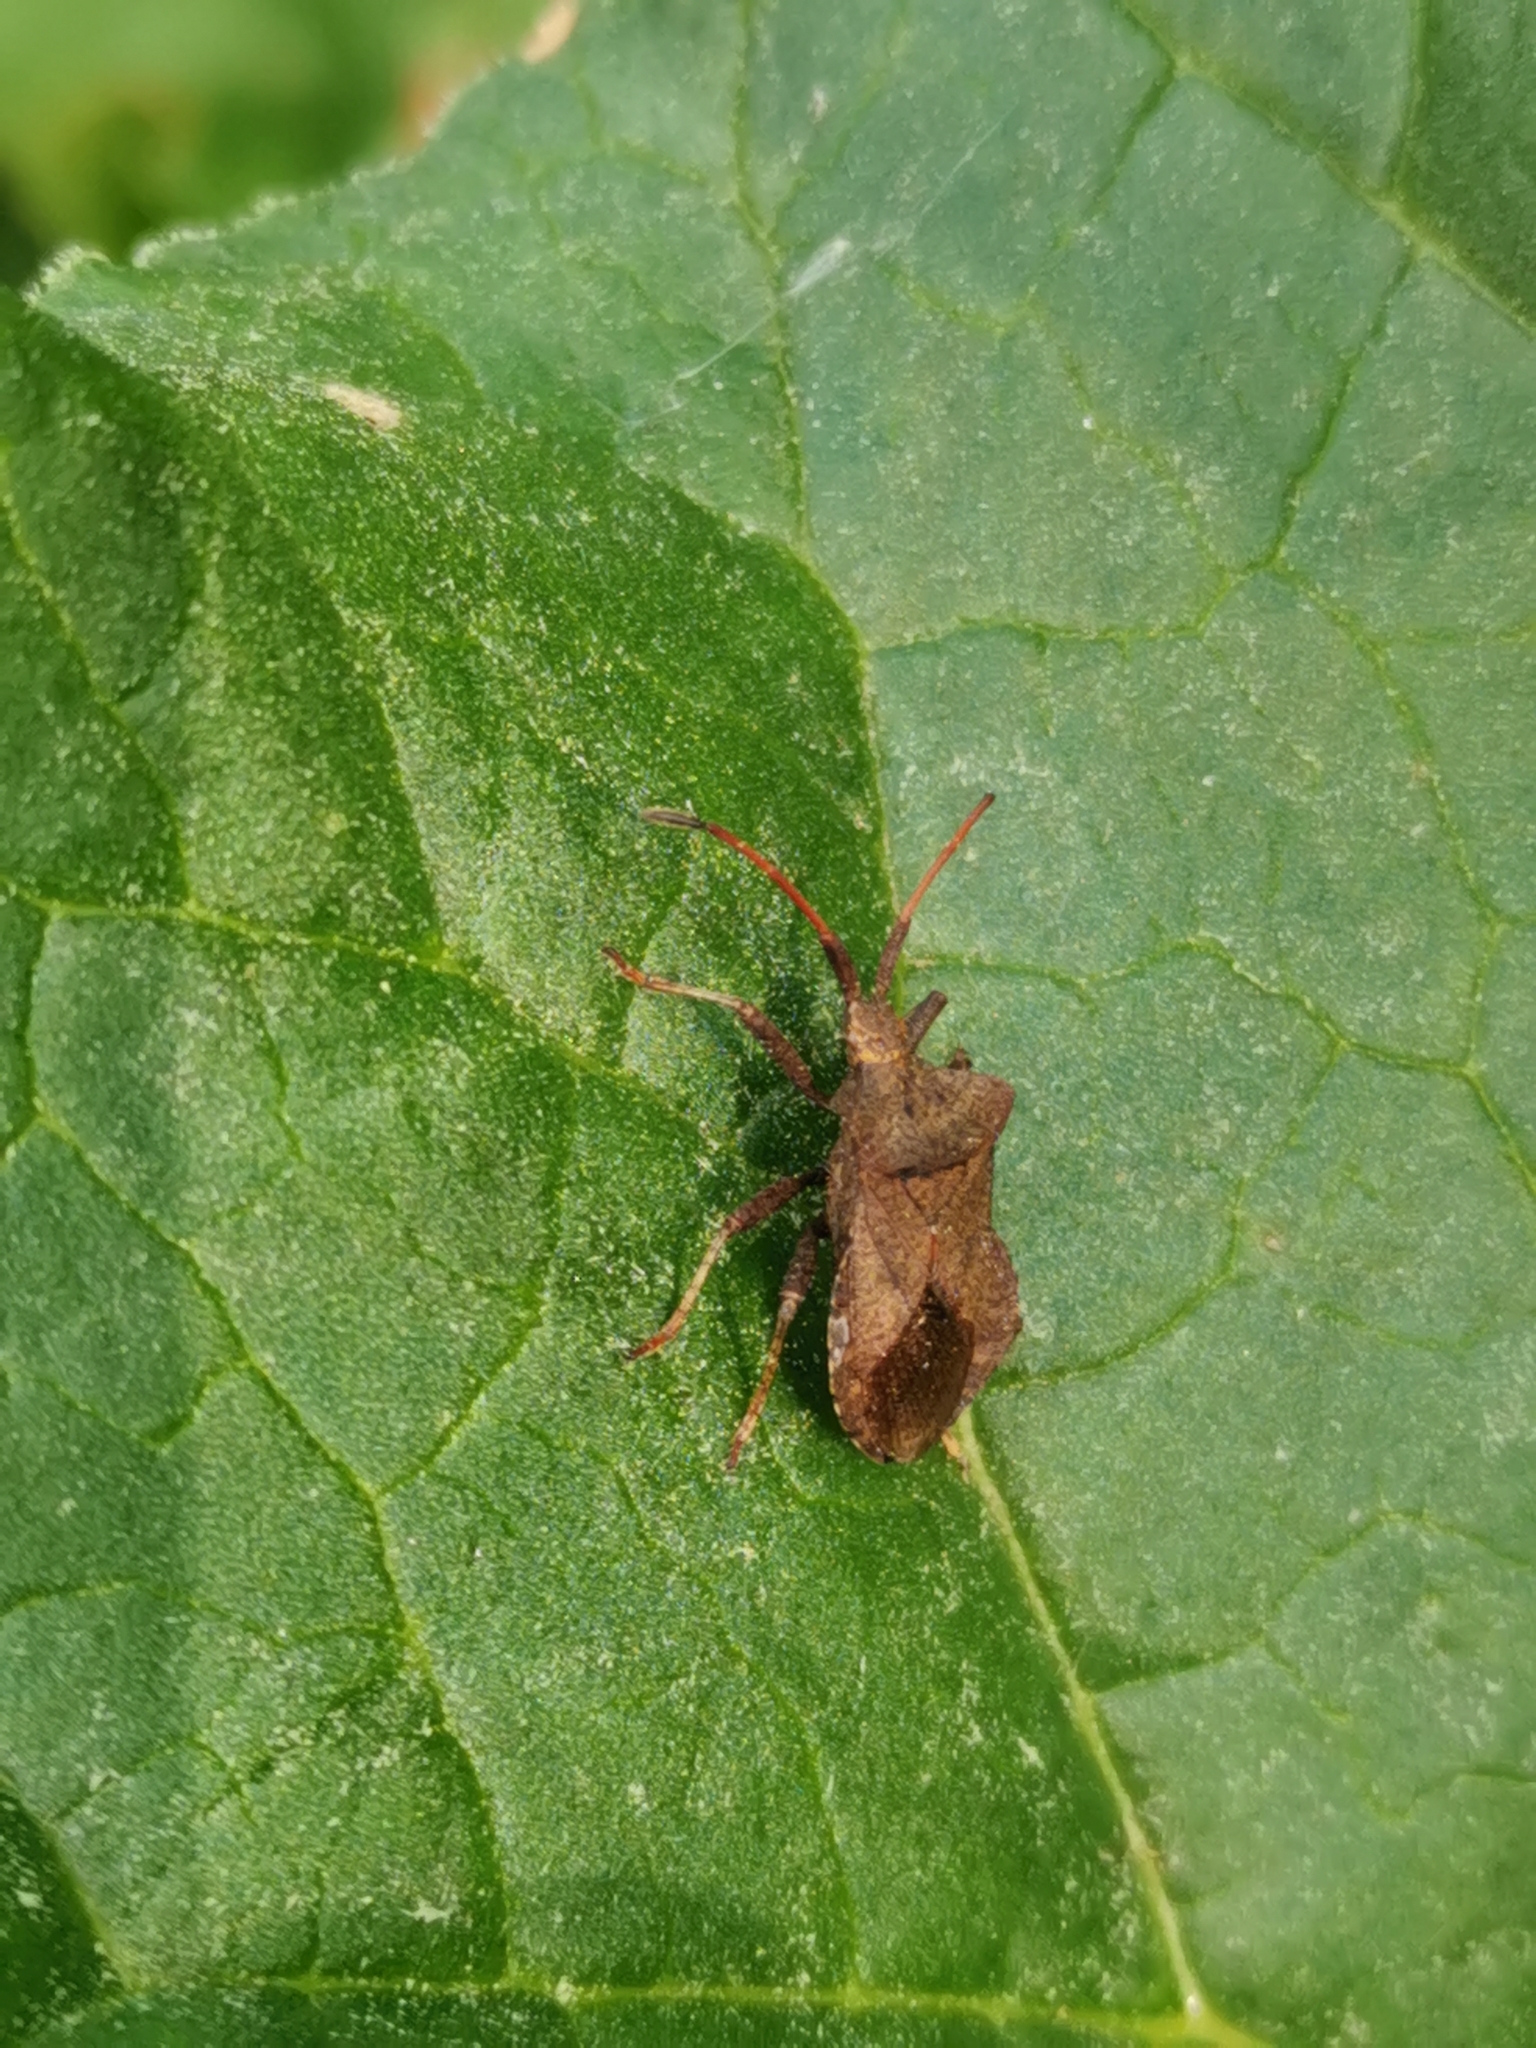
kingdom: Animalia
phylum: Arthropoda
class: Insecta
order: Hemiptera
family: Coreidae
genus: Coreus
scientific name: Coreus marginatus
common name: Dock bug
